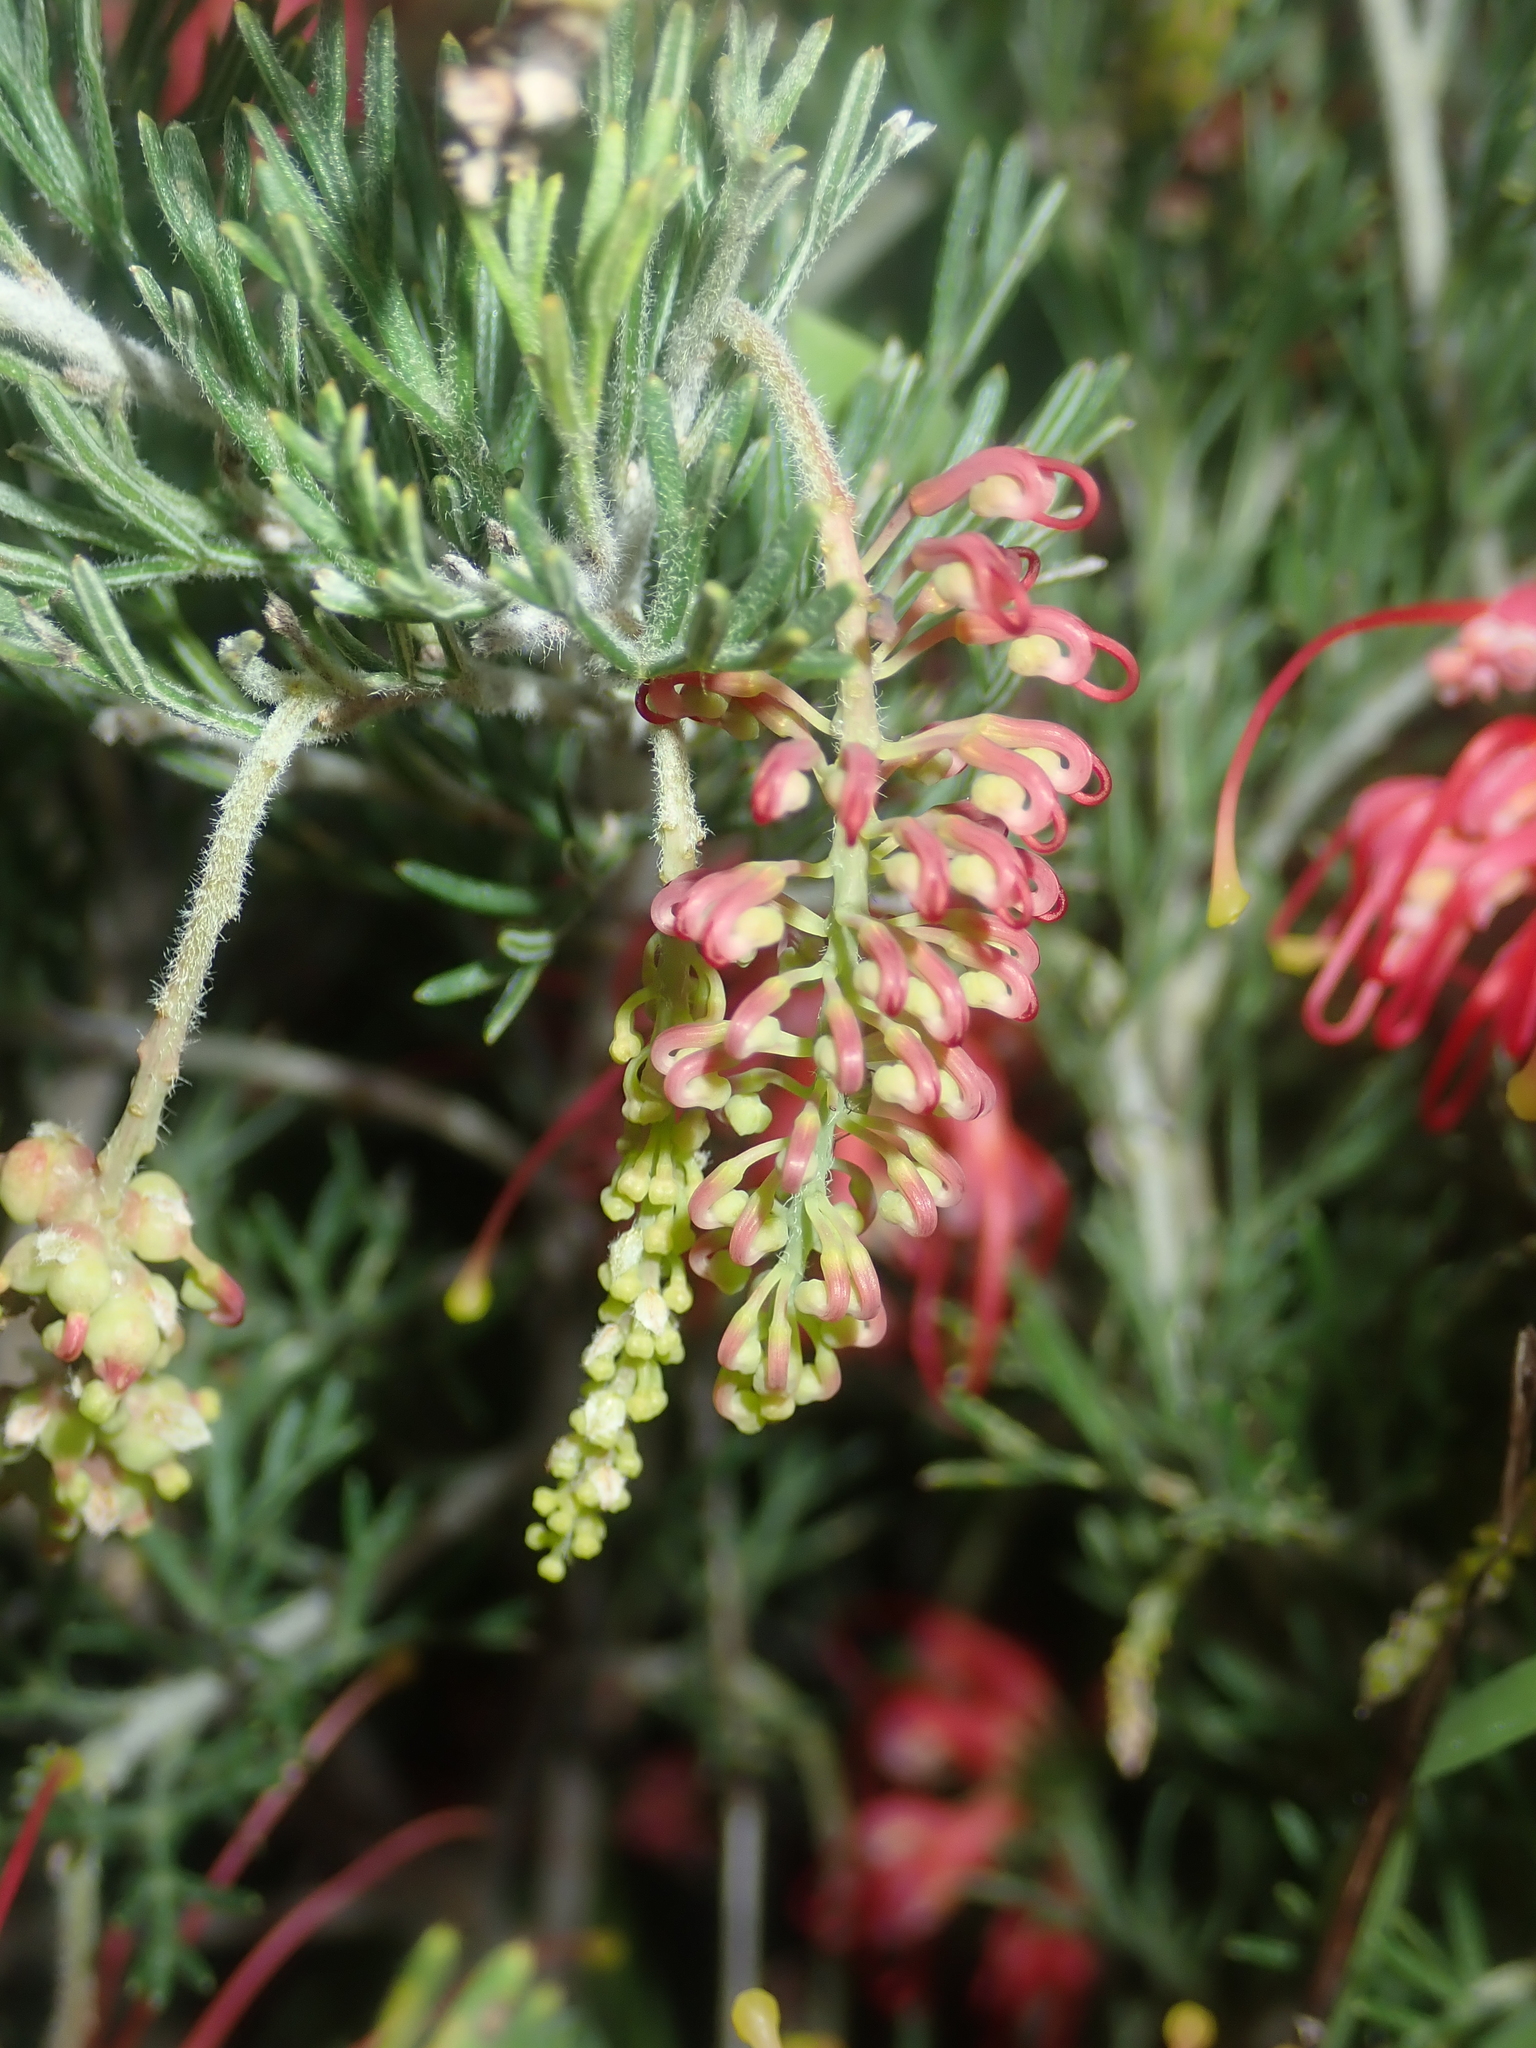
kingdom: Plantae
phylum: Tracheophyta
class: Magnoliopsida
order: Proteales
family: Proteaceae
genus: Grevillea
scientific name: Grevillea glabrilimba
